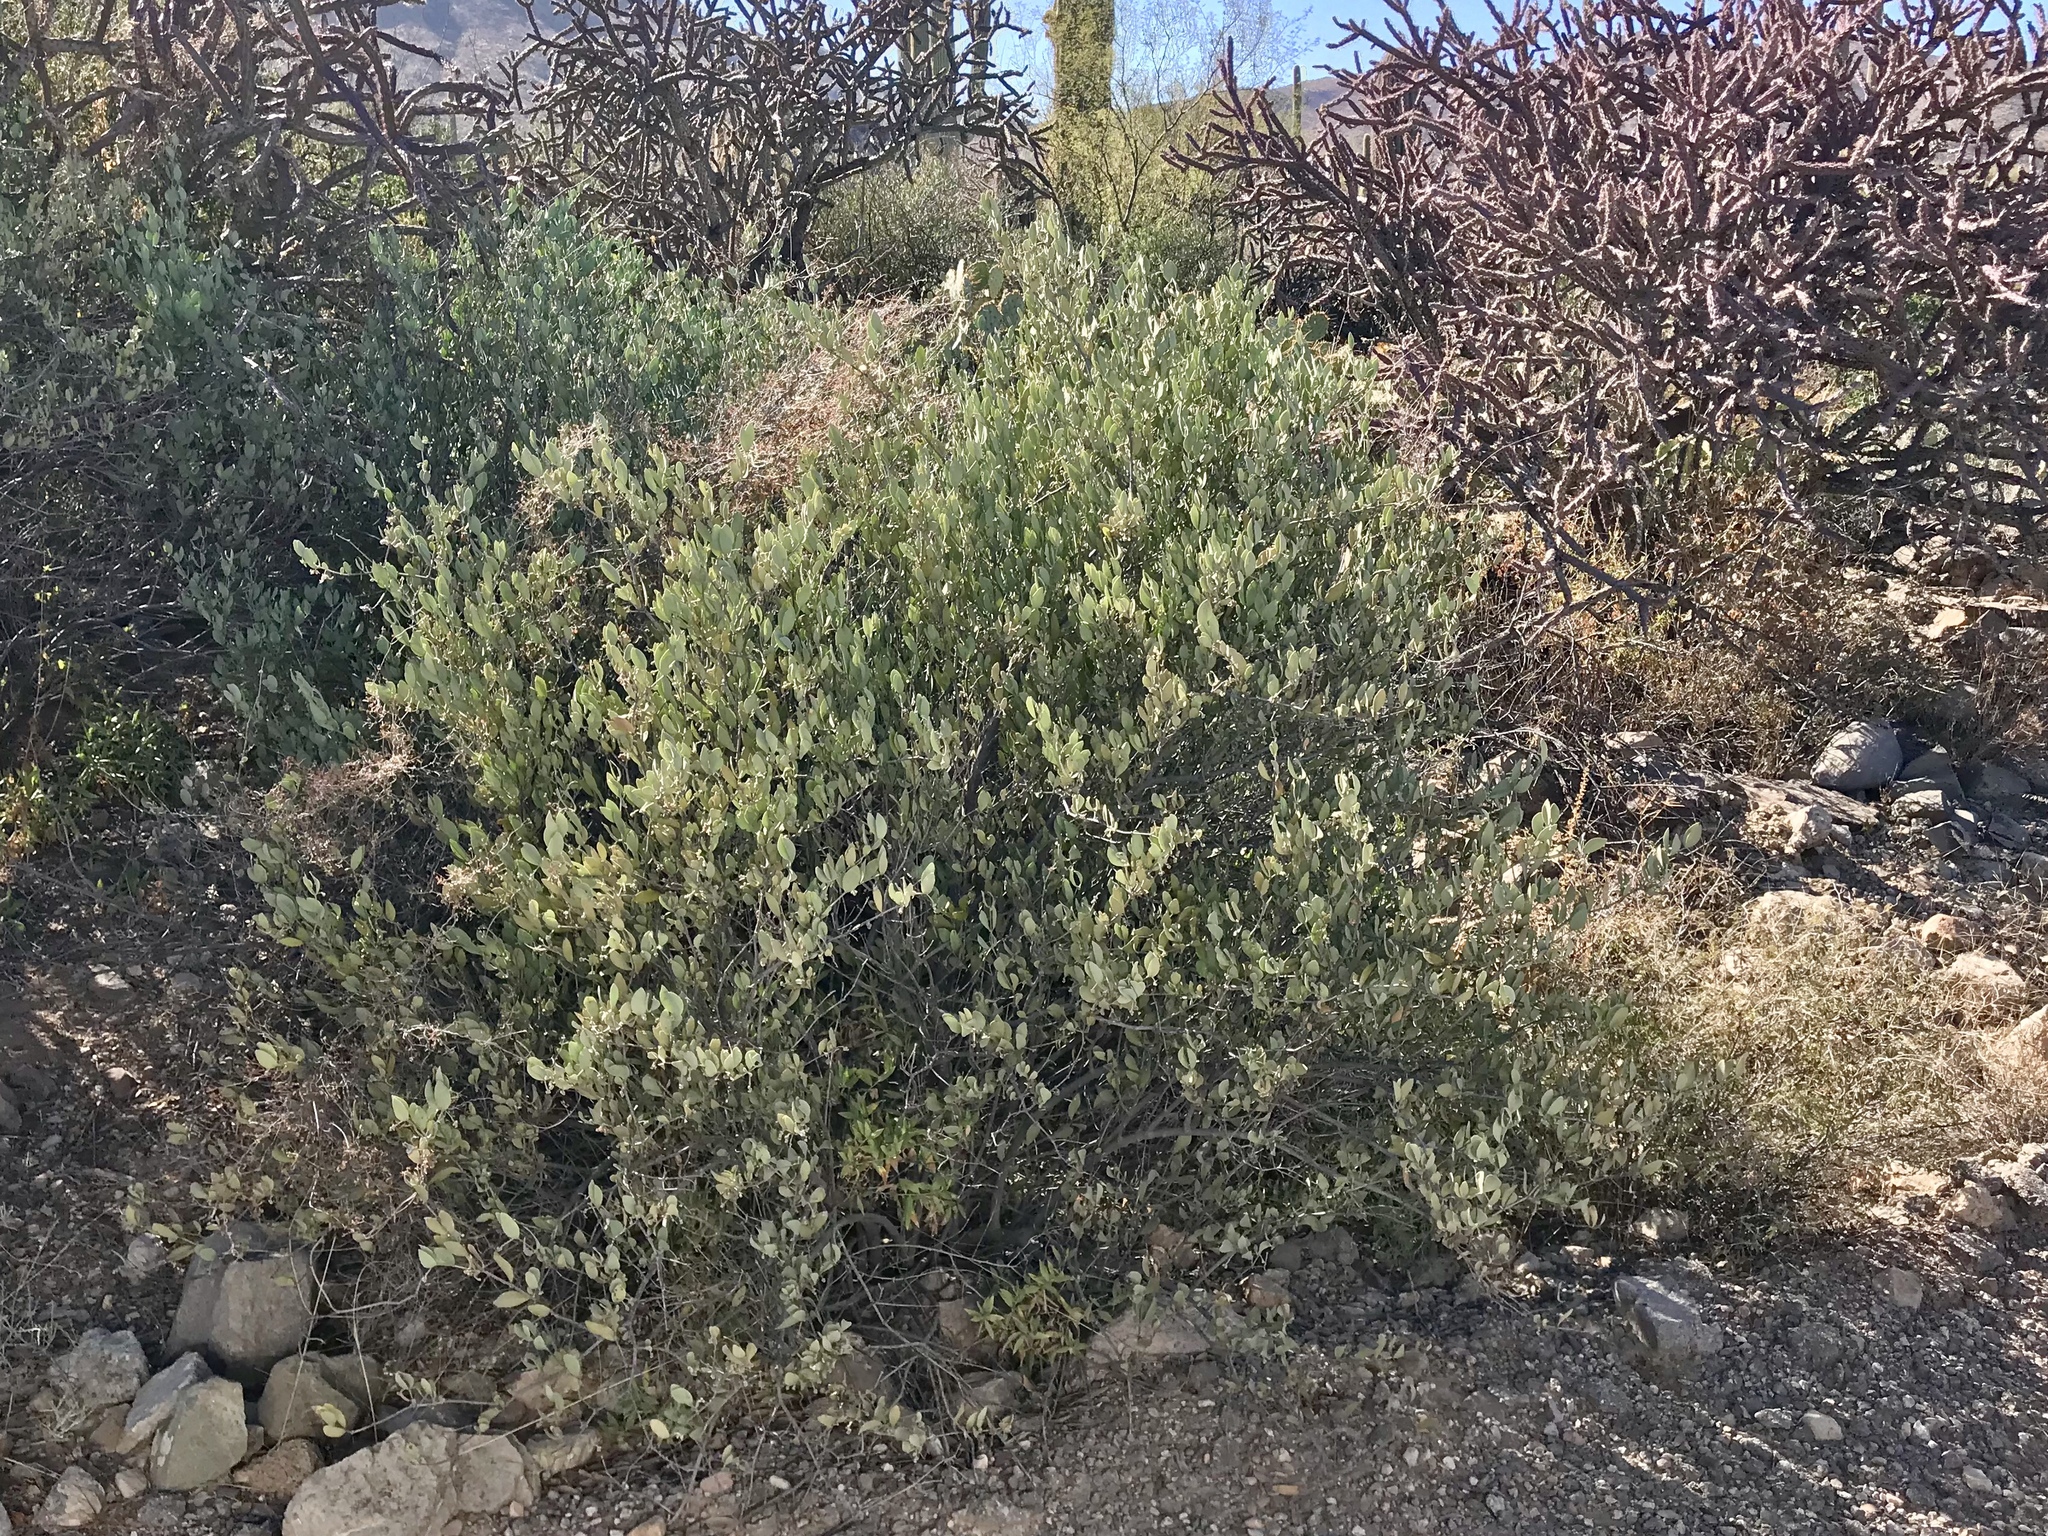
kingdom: Plantae
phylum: Tracheophyta
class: Magnoliopsida
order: Caryophyllales
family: Simmondsiaceae
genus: Simmondsia
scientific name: Simmondsia chinensis
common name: Jojoba
